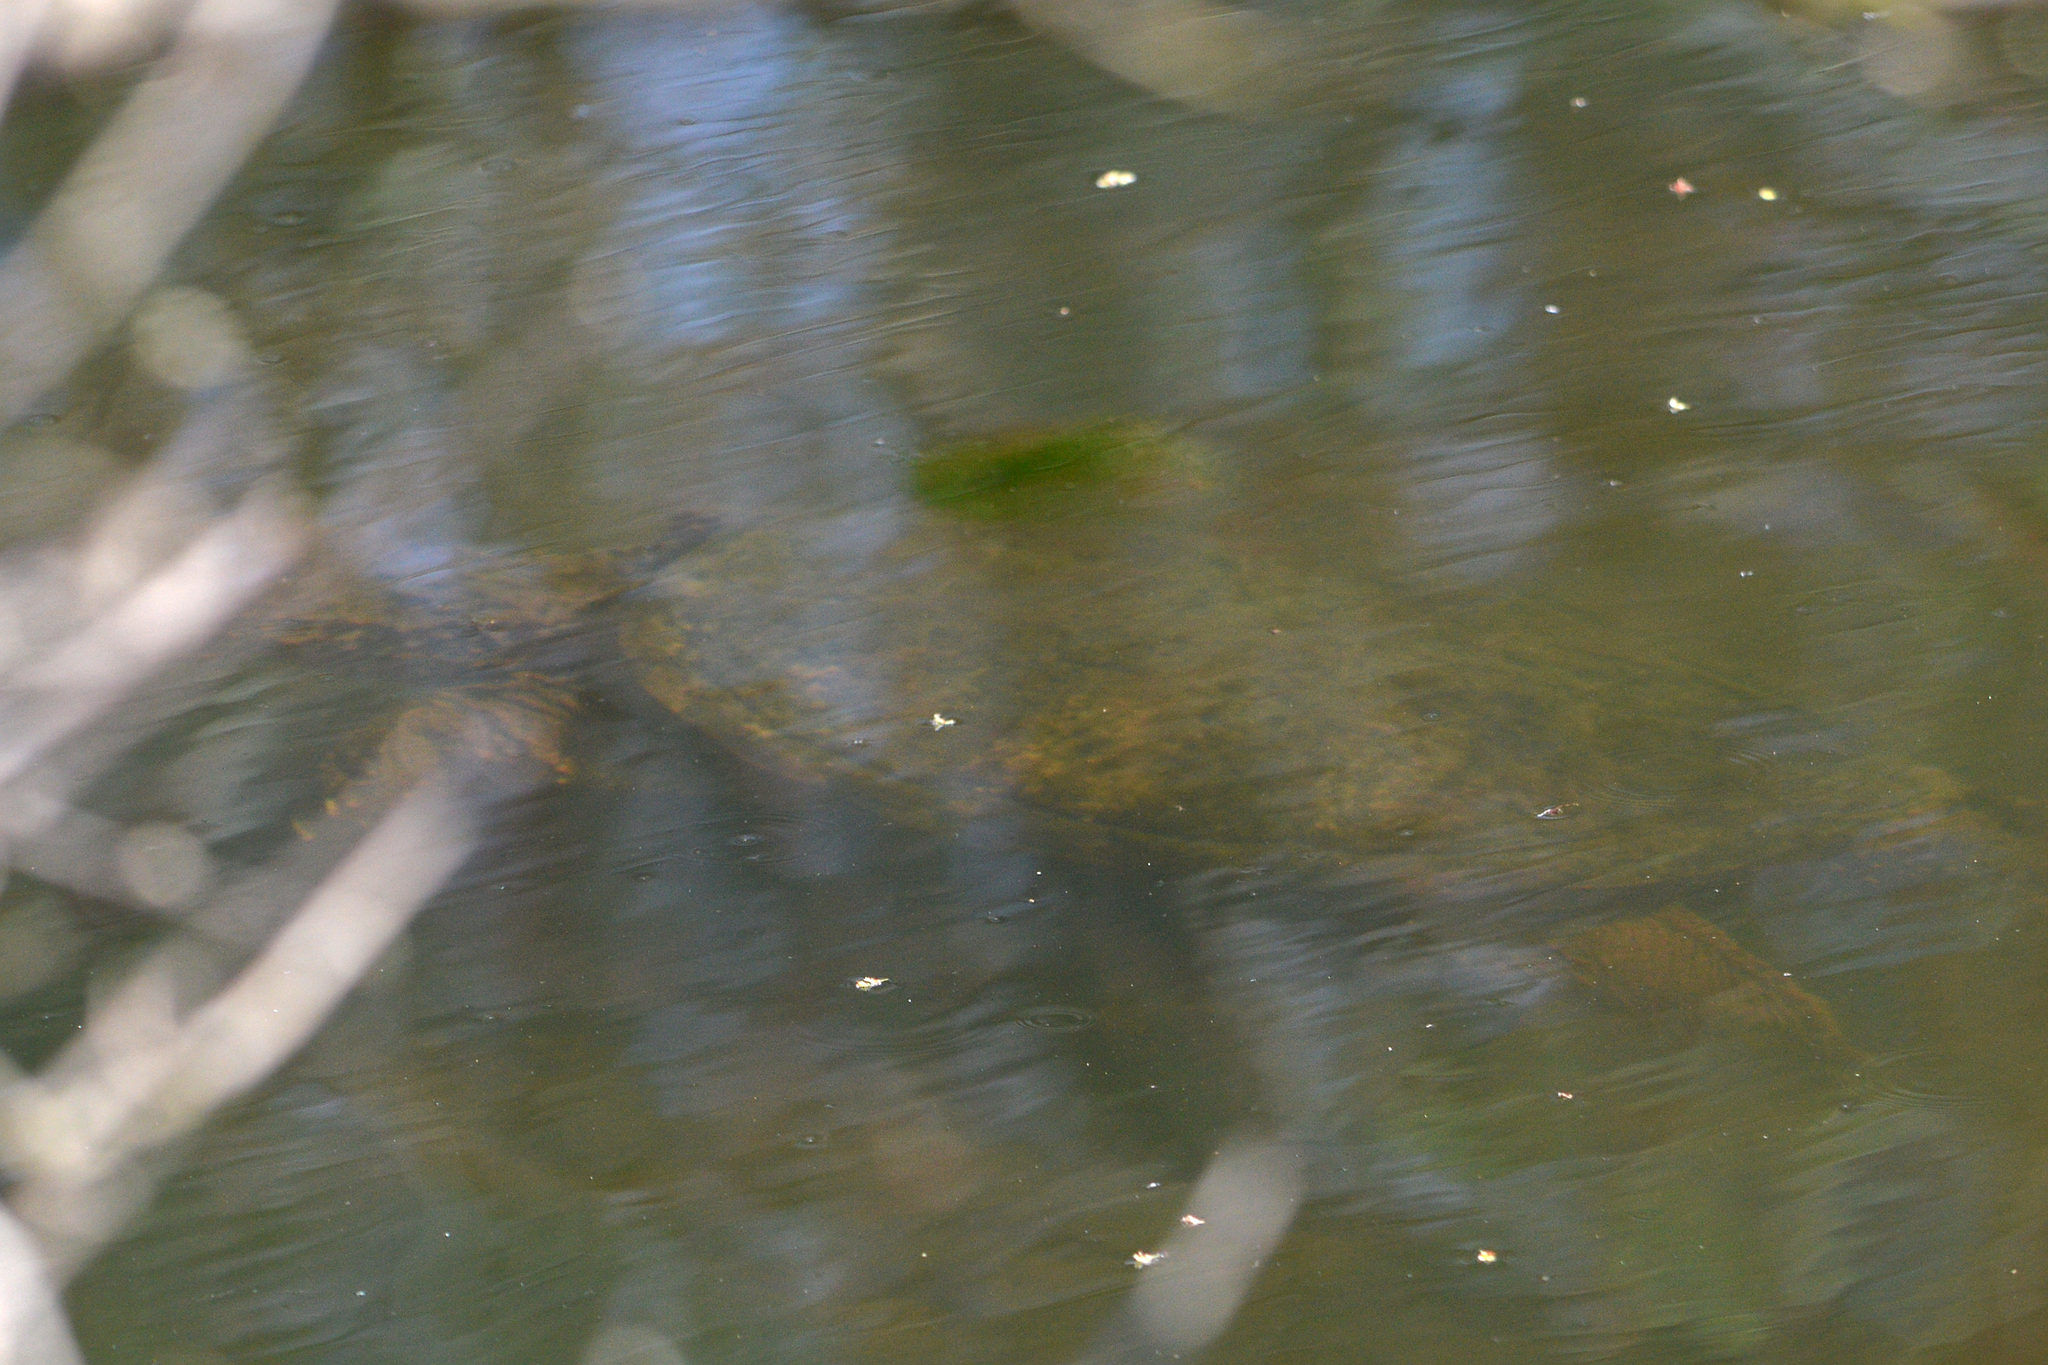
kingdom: Animalia
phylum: Chordata
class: Testudines
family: Chelydridae
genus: Chelydra
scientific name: Chelydra serpentina
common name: Common snapping turtle
